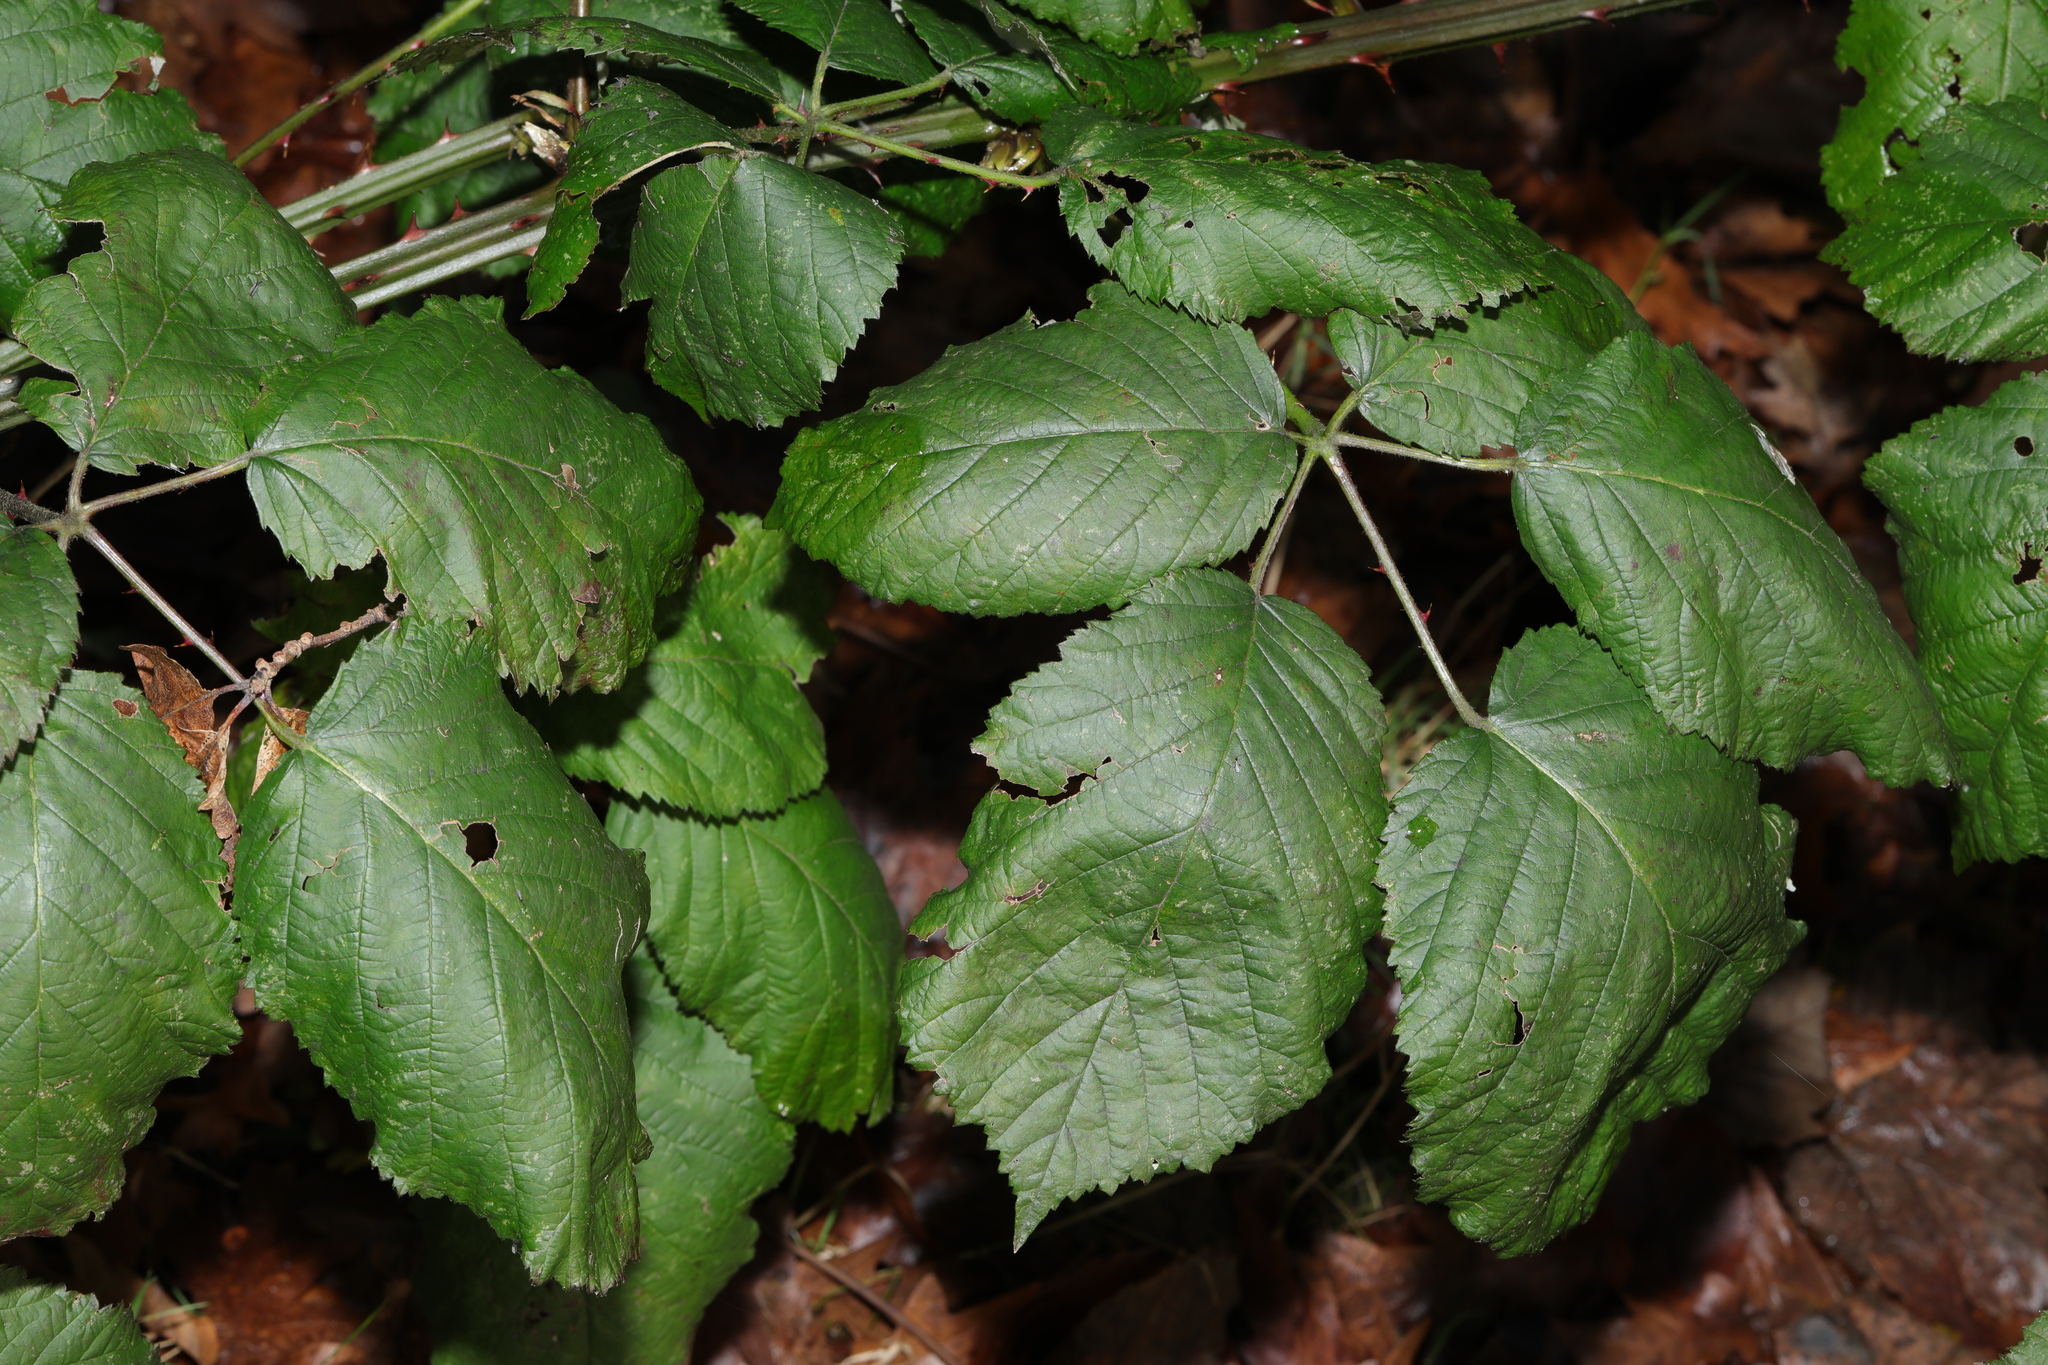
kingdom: Plantae
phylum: Tracheophyta
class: Magnoliopsida
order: Rosales
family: Rosaceae
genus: Rubus
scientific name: Rubus armeniacus
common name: Himalayan blackberry
